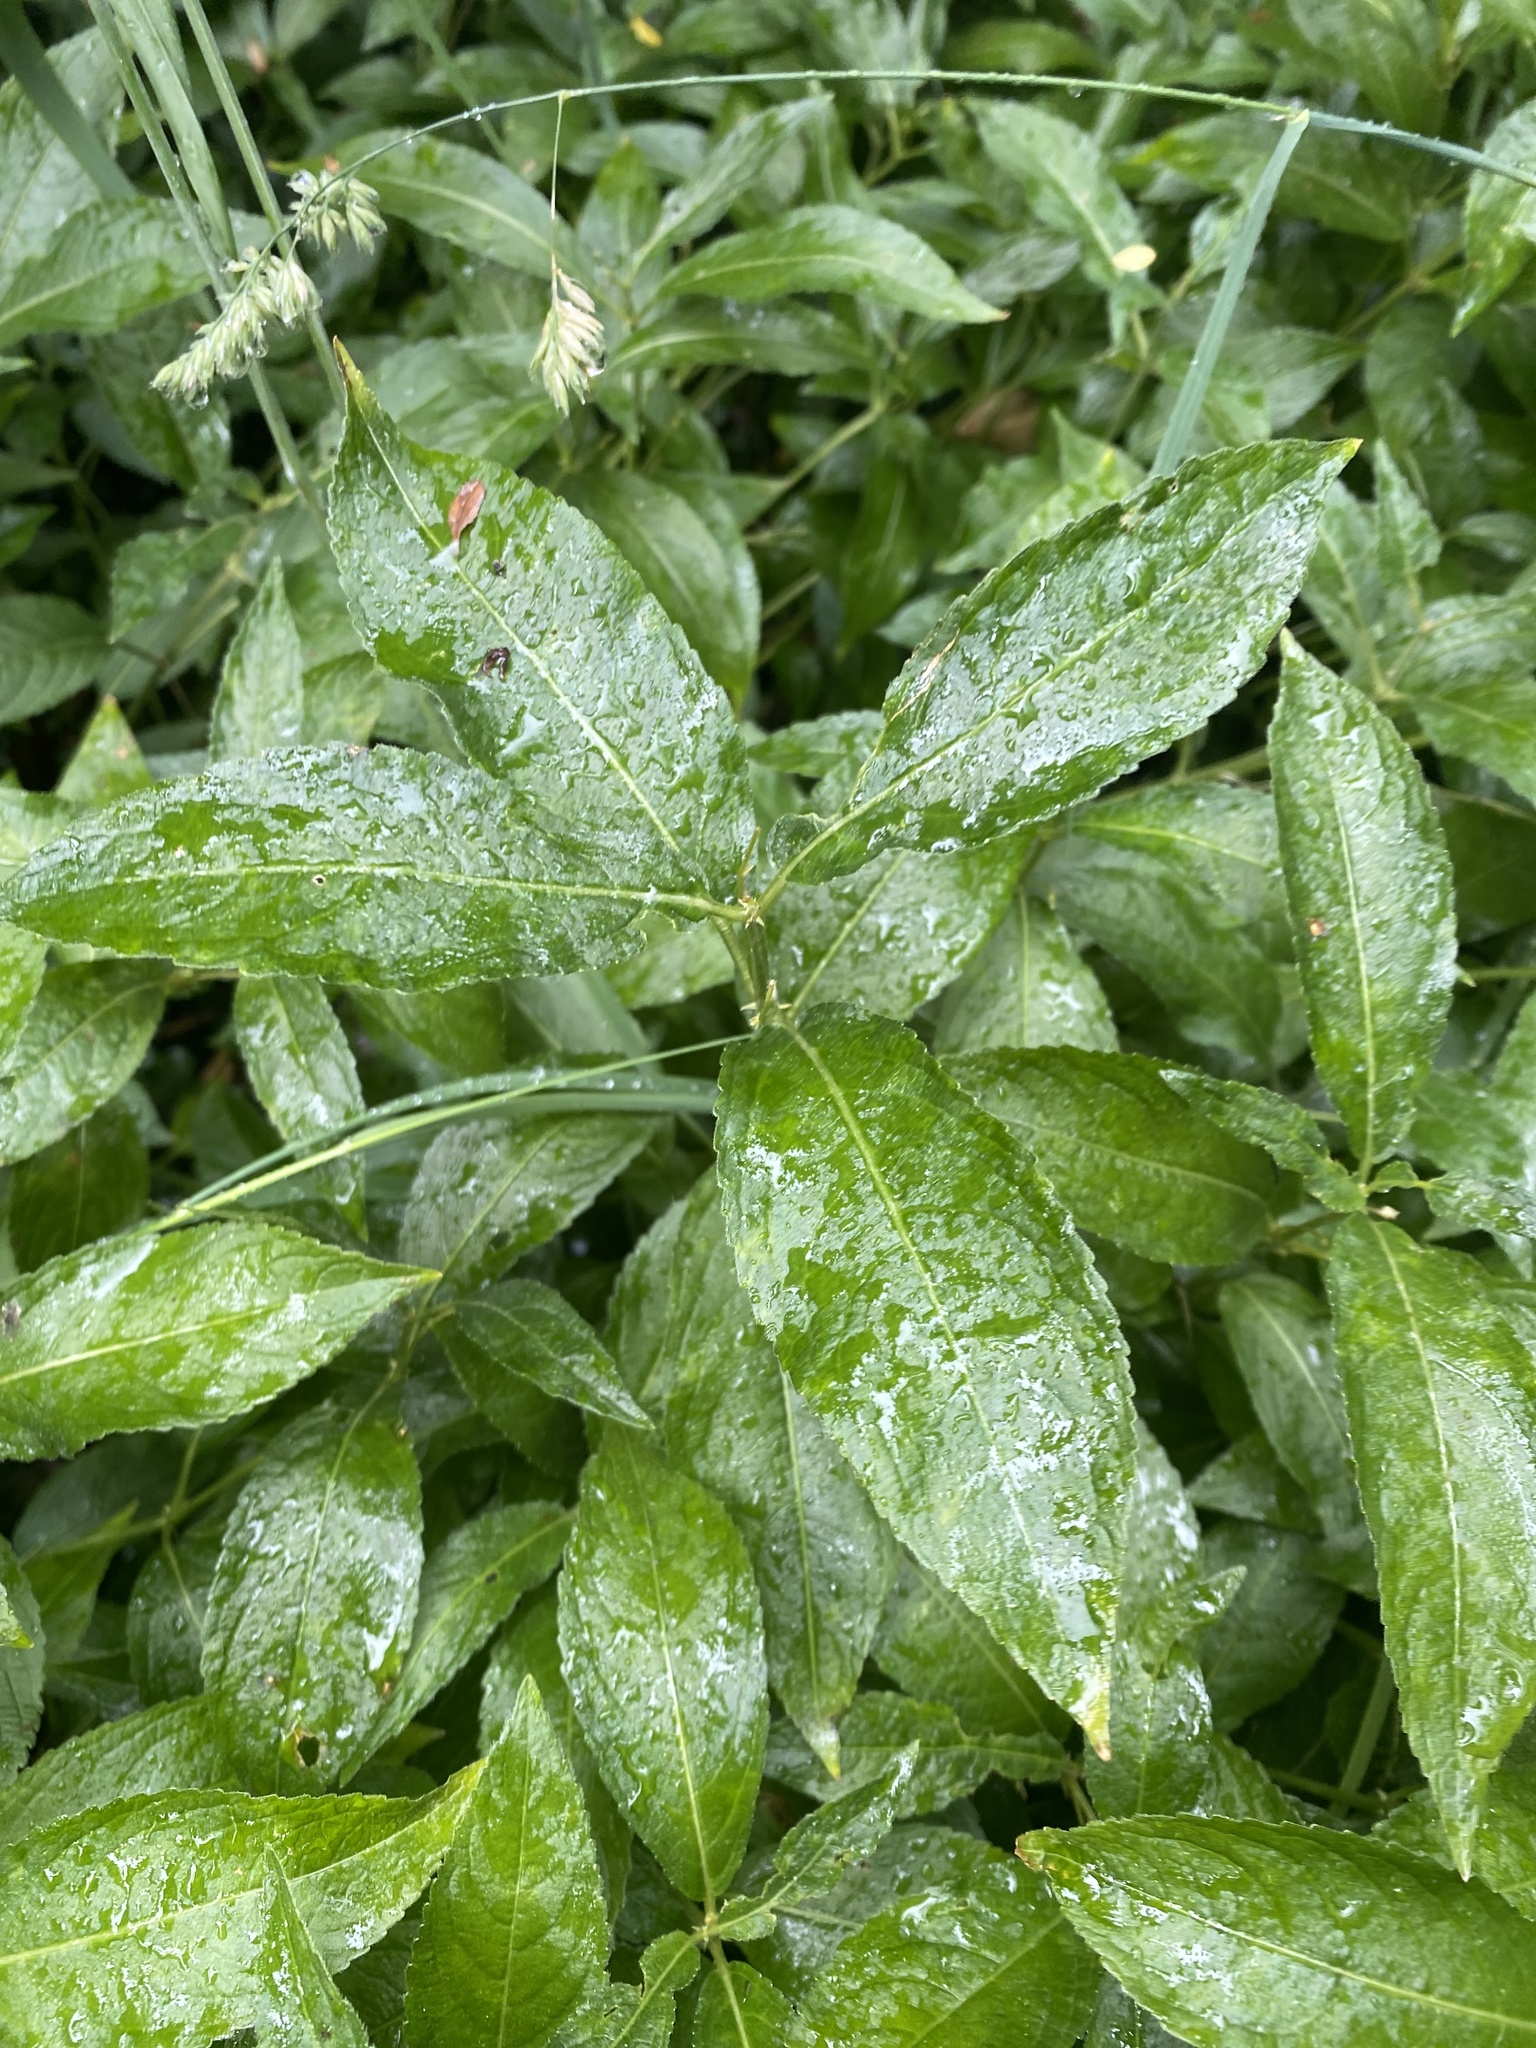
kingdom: Plantae
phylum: Tracheophyta
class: Magnoliopsida
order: Malpighiales
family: Euphorbiaceae
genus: Mercurialis
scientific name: Mercurialis perennis
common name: Dog mercury
